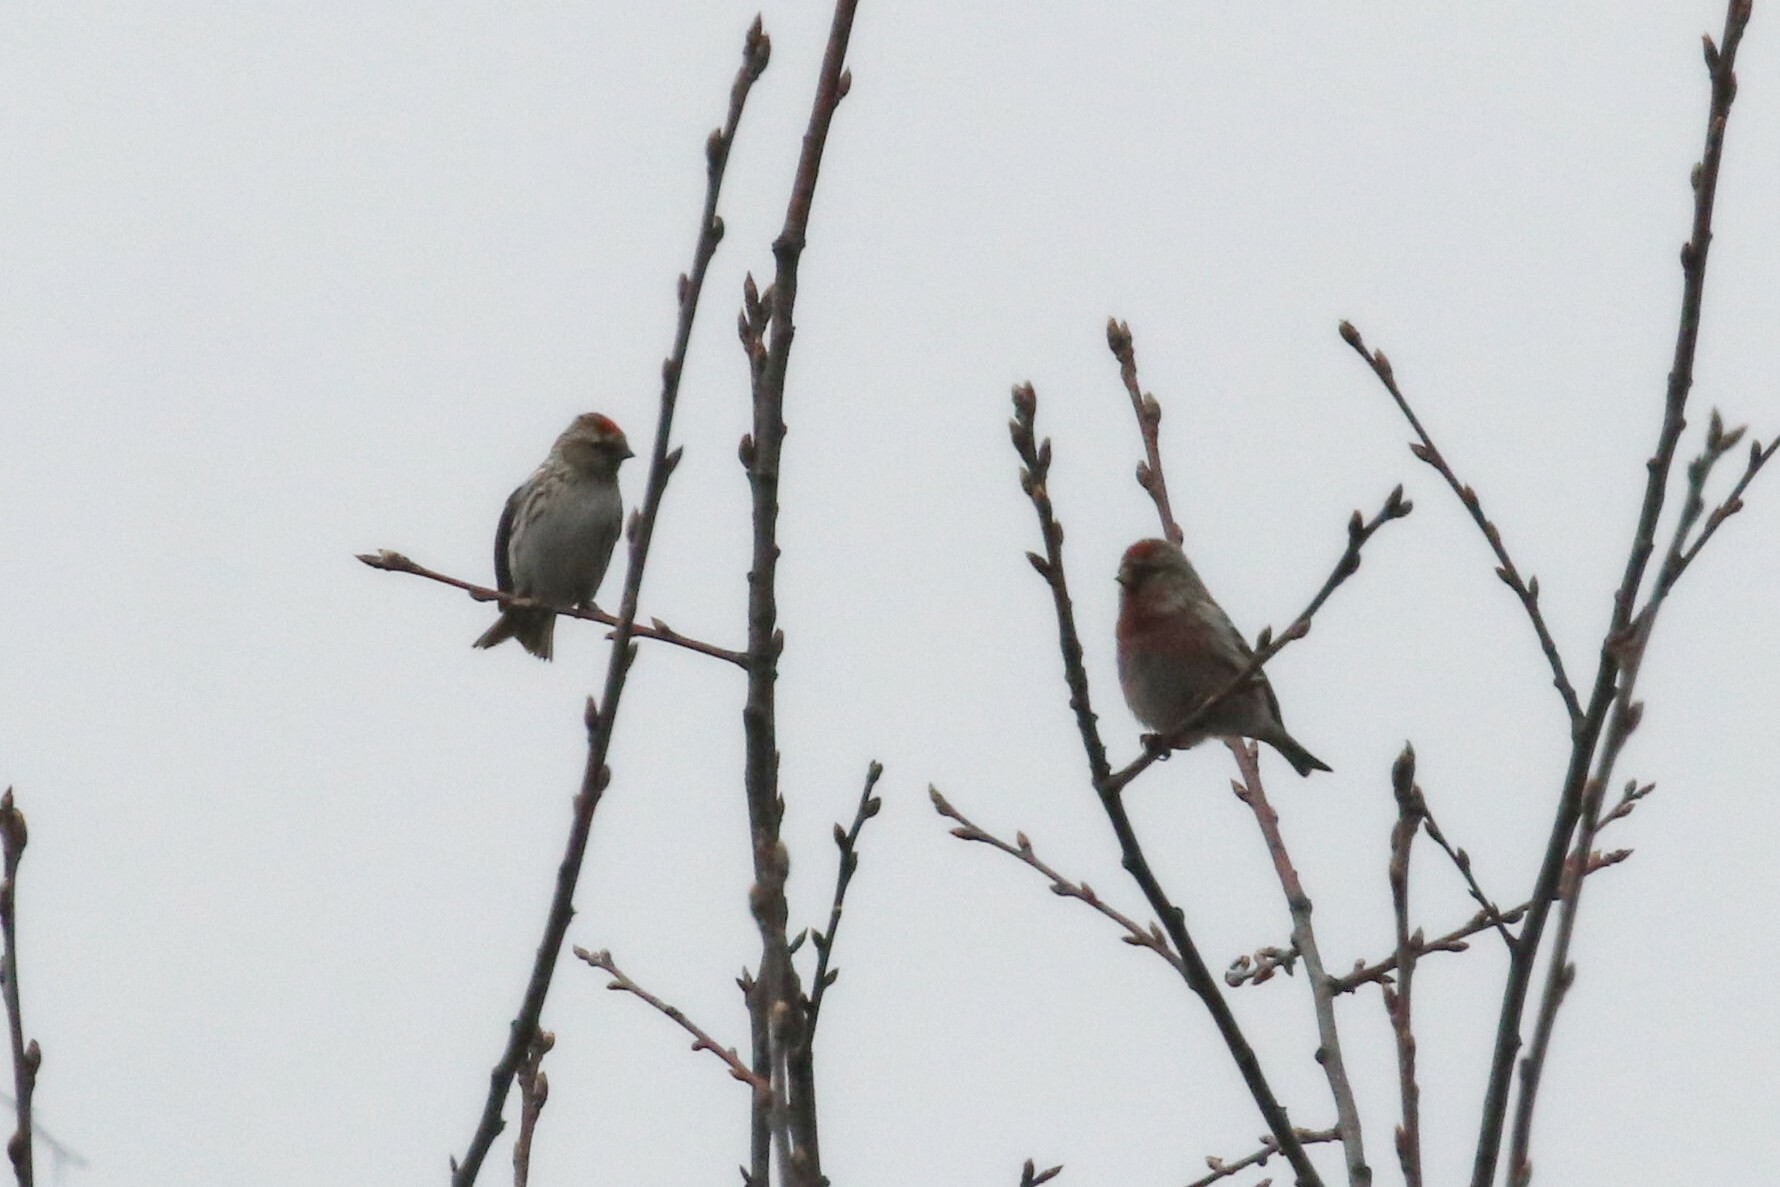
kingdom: Animalia
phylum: Chordata
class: Aves
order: Passeriformes
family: Fringillidae
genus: Acanthis
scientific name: Acanthis flammea
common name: Common redpoll
